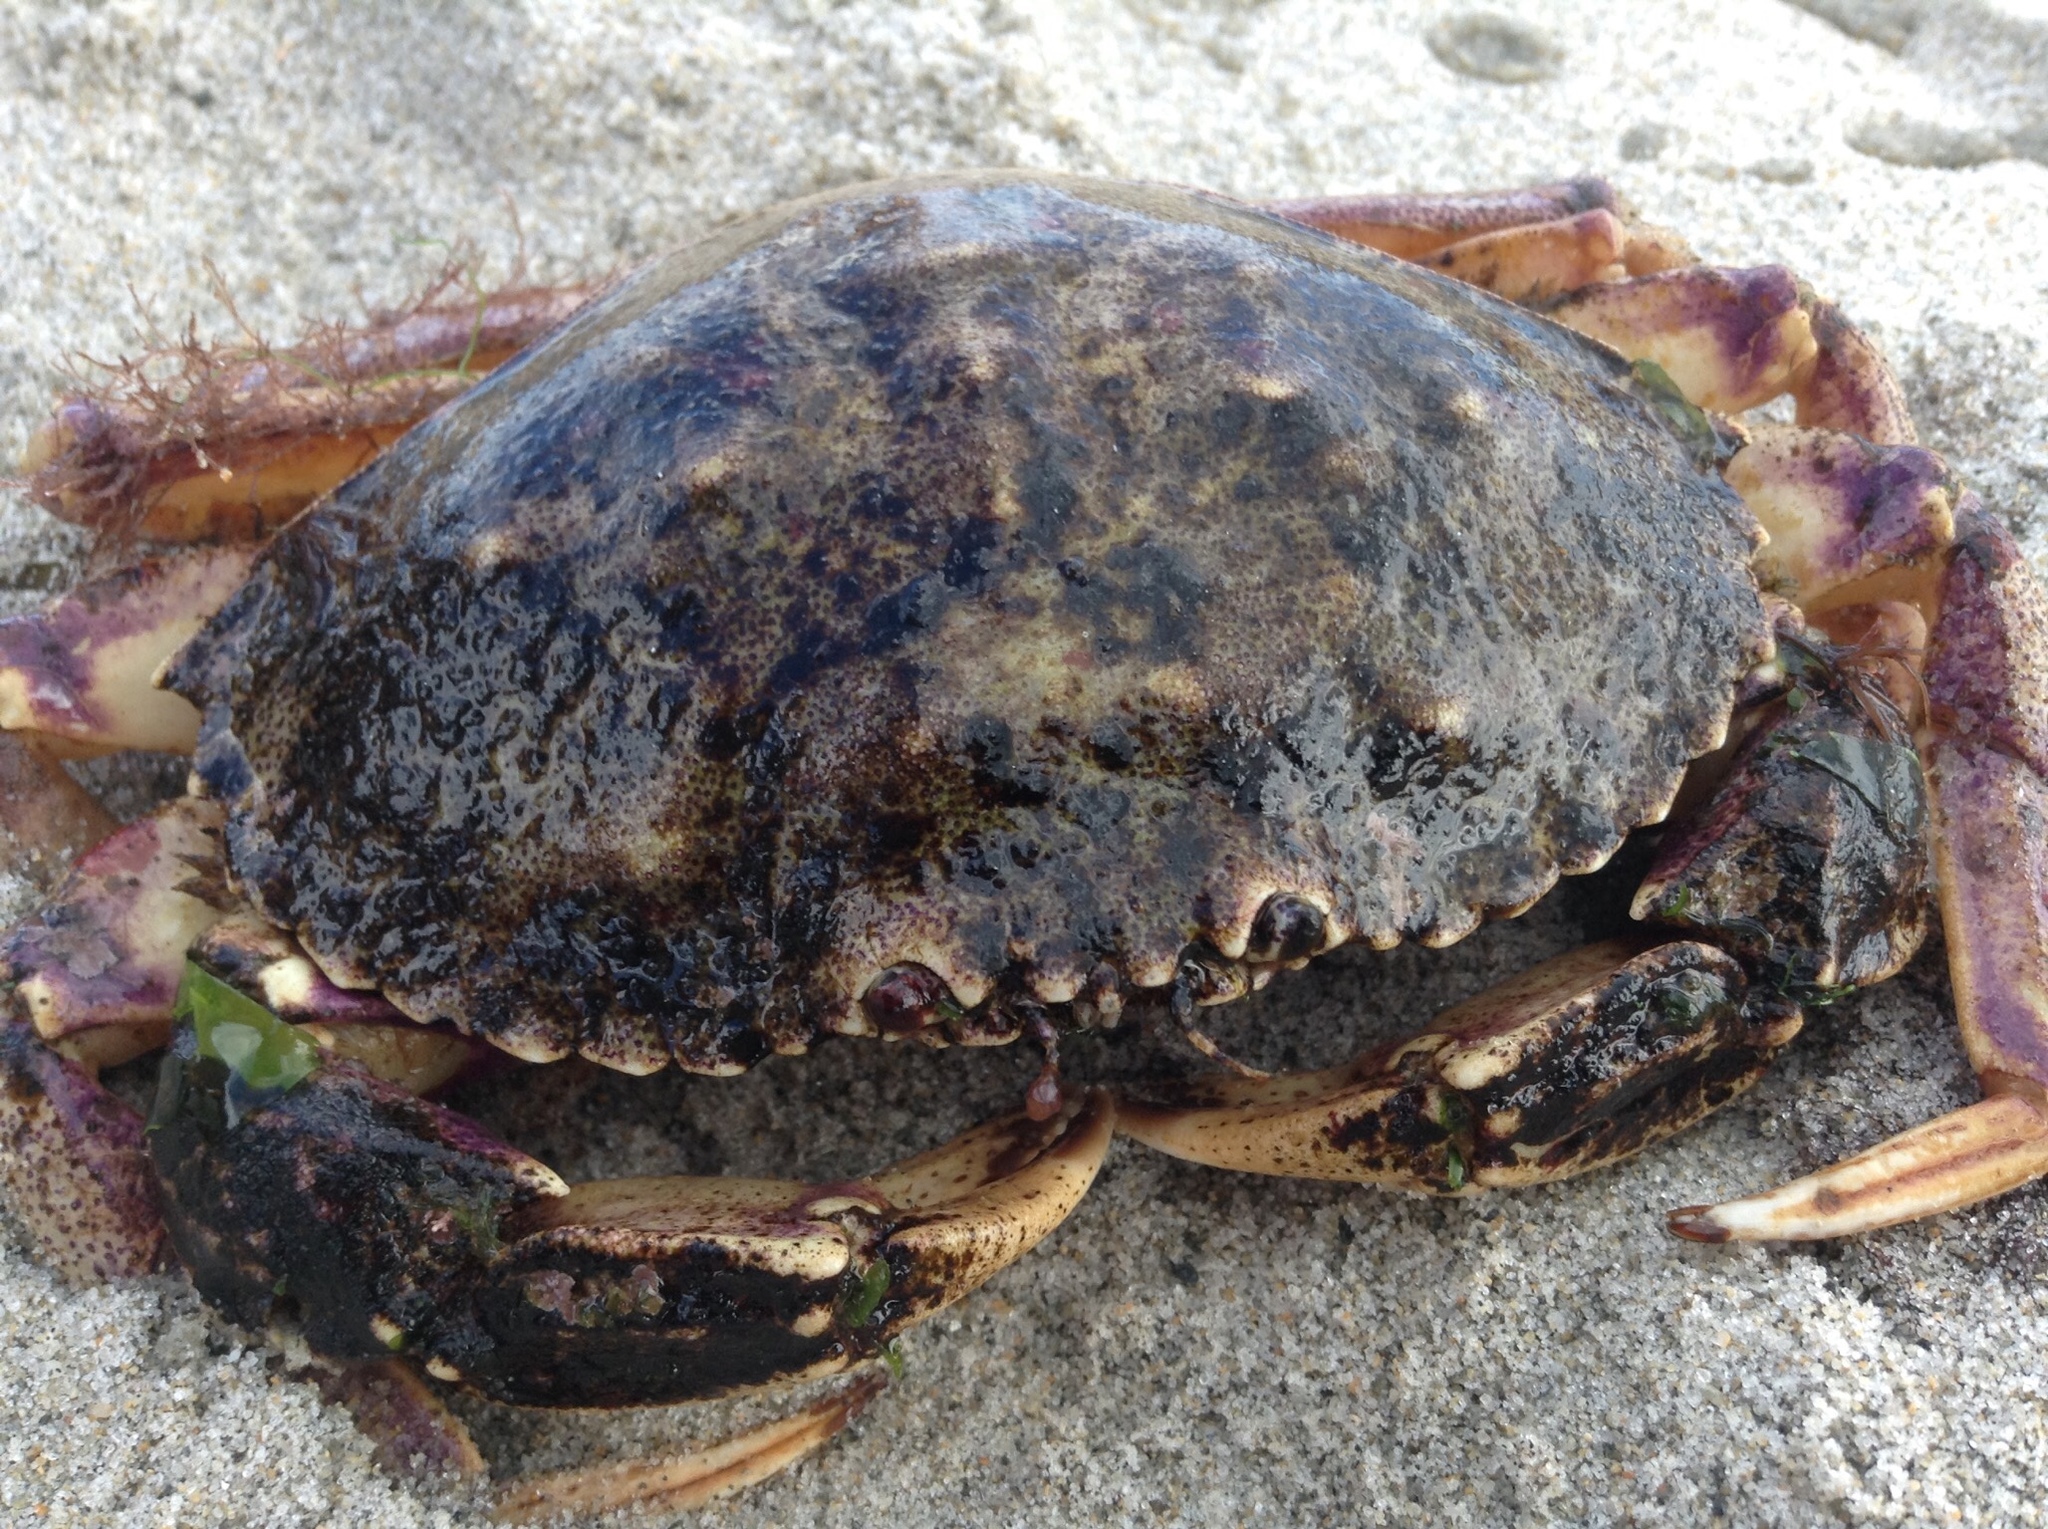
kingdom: Animalia
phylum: Arthropoda
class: Malacostraca
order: Decapoda
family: Cancridae
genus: Cancer
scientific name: Cancer irroratus
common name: Atlantic rock crab
